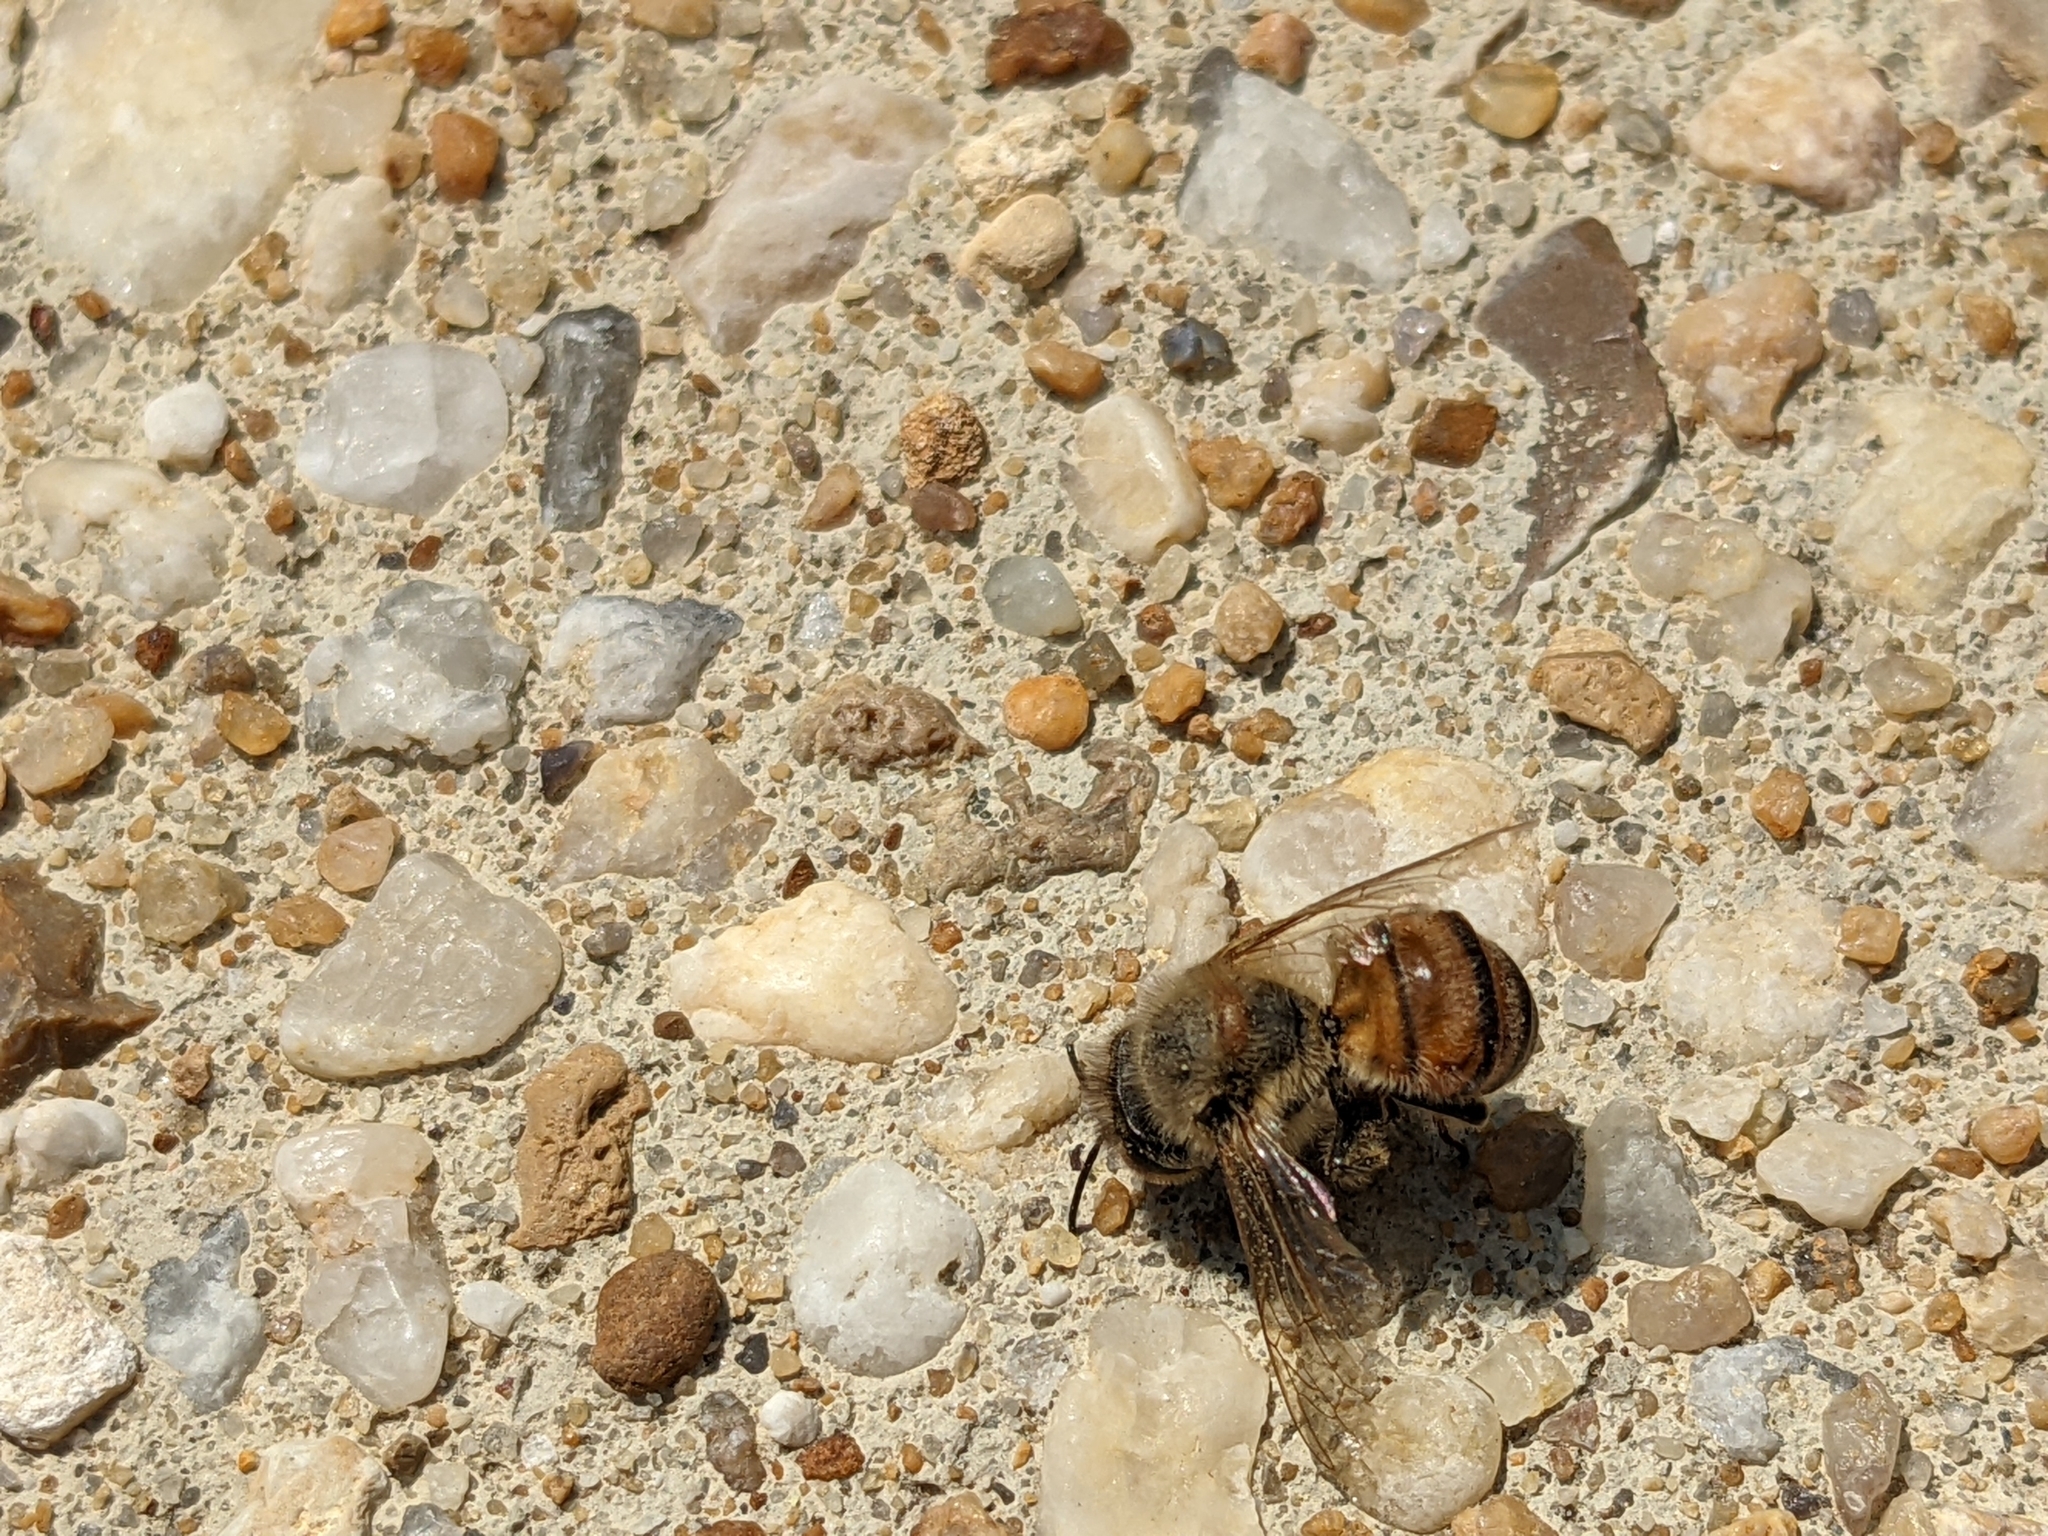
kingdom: Animalia
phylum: Arthropoda
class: Insecta
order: Hymenoptera
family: Apidae
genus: Apis
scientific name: Apis mellifera
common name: Honey bee
